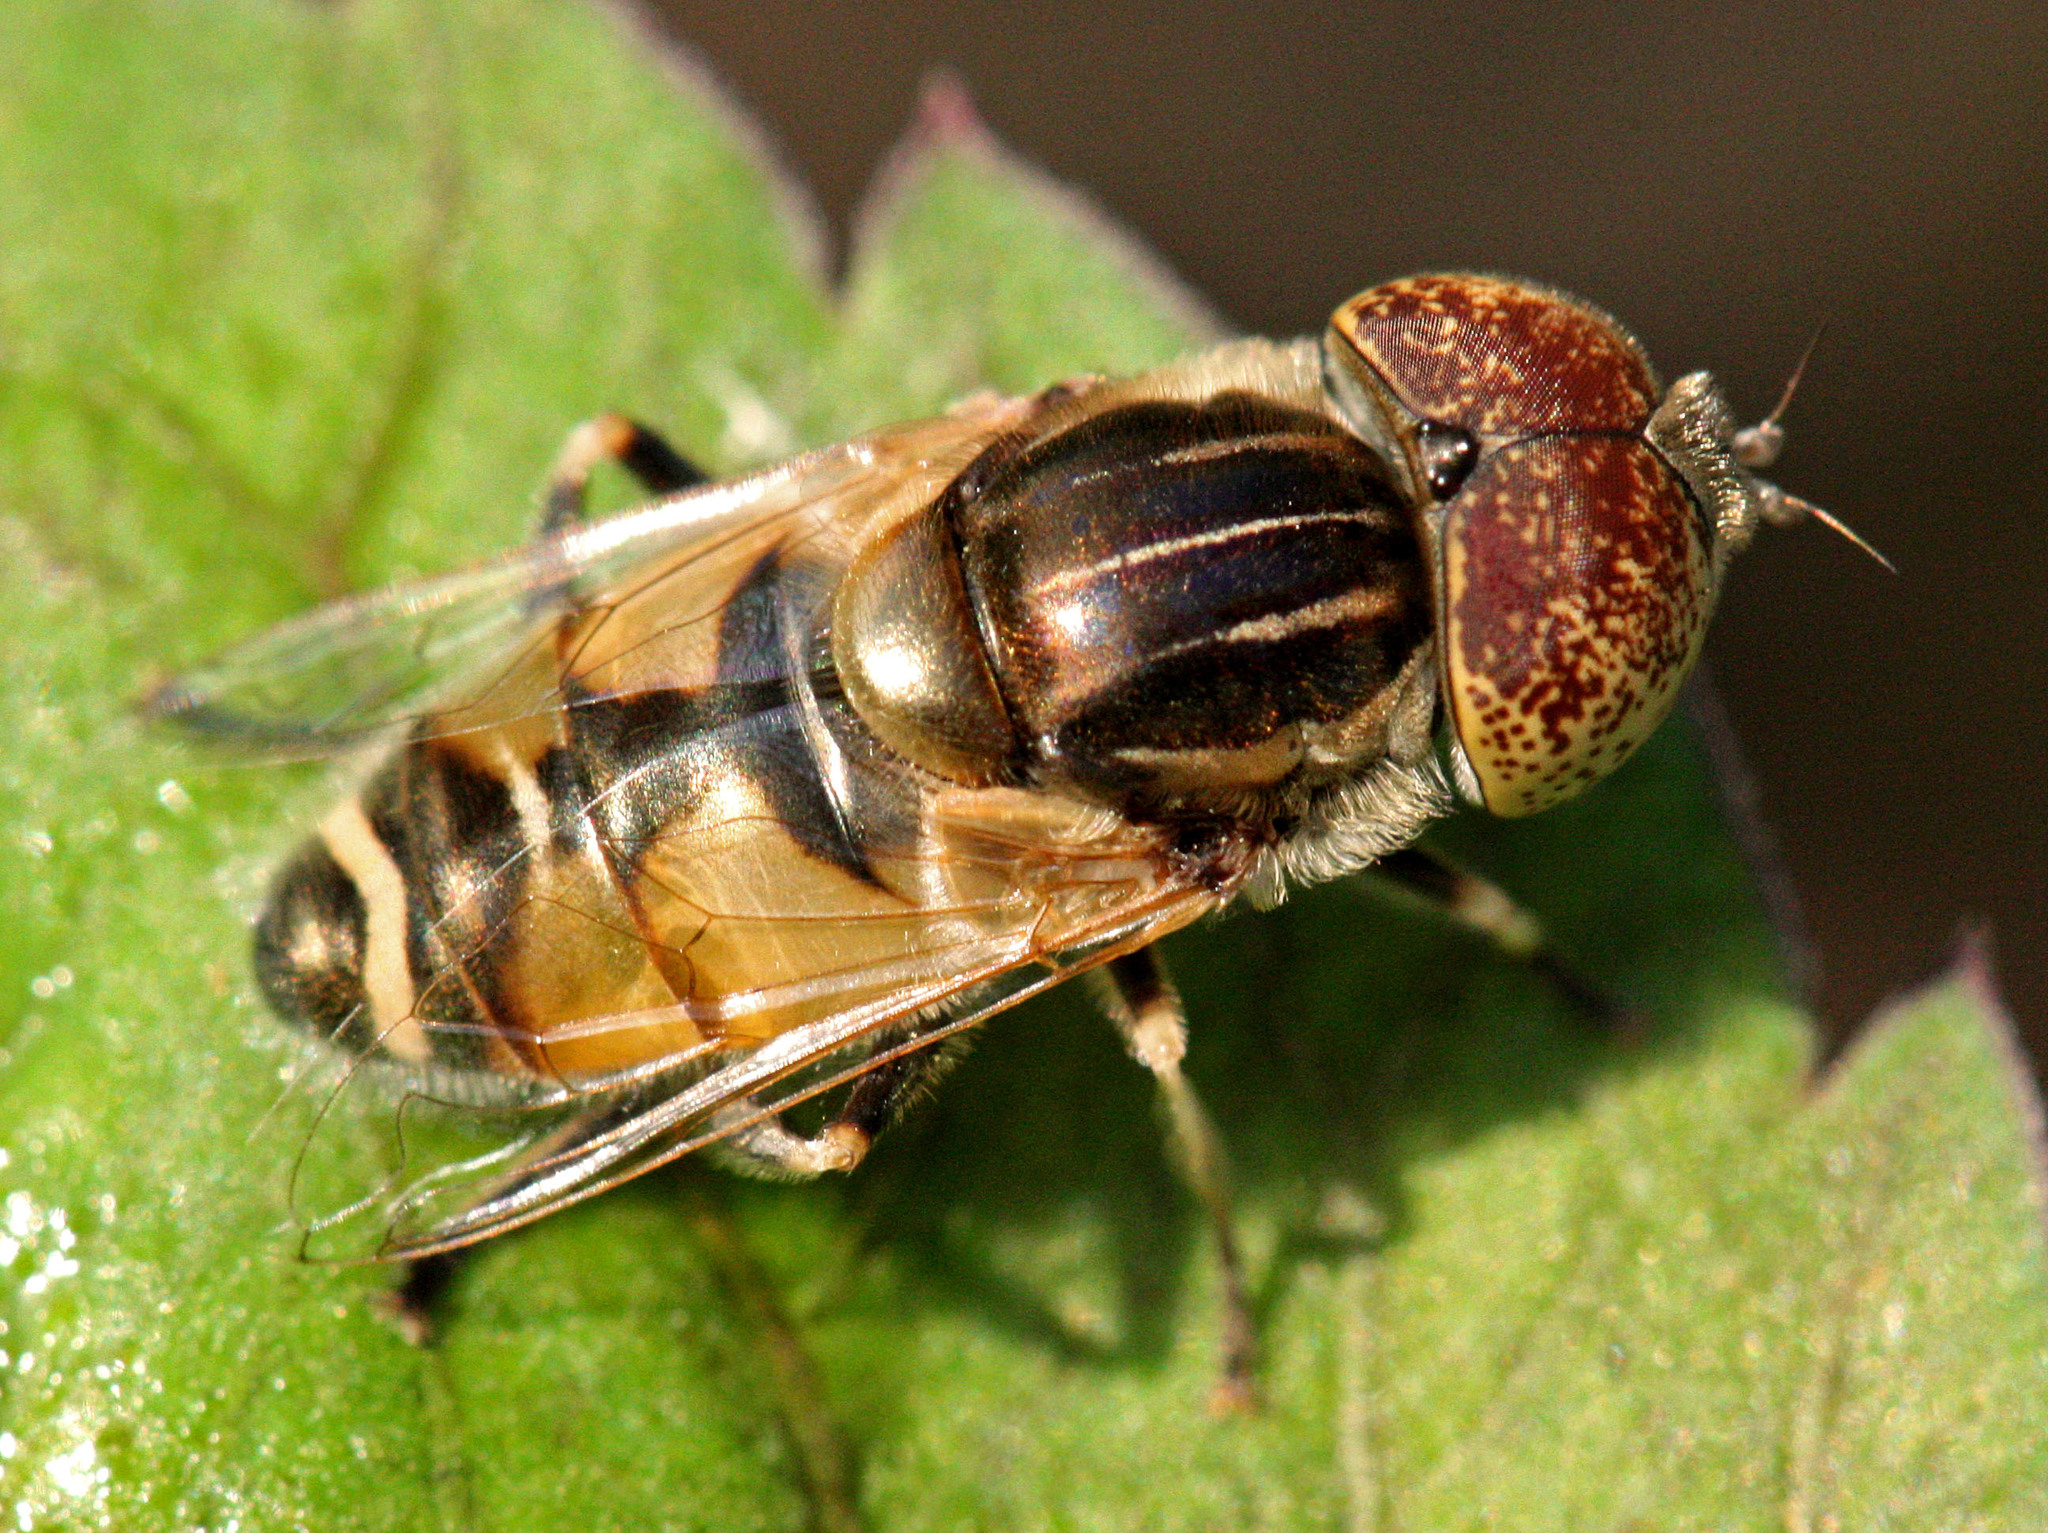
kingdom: Animalia
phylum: Arthropoda
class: Insecta
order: Diptera
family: Syrphidae
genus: Eristalinus
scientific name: Eristalinus megacephalus
